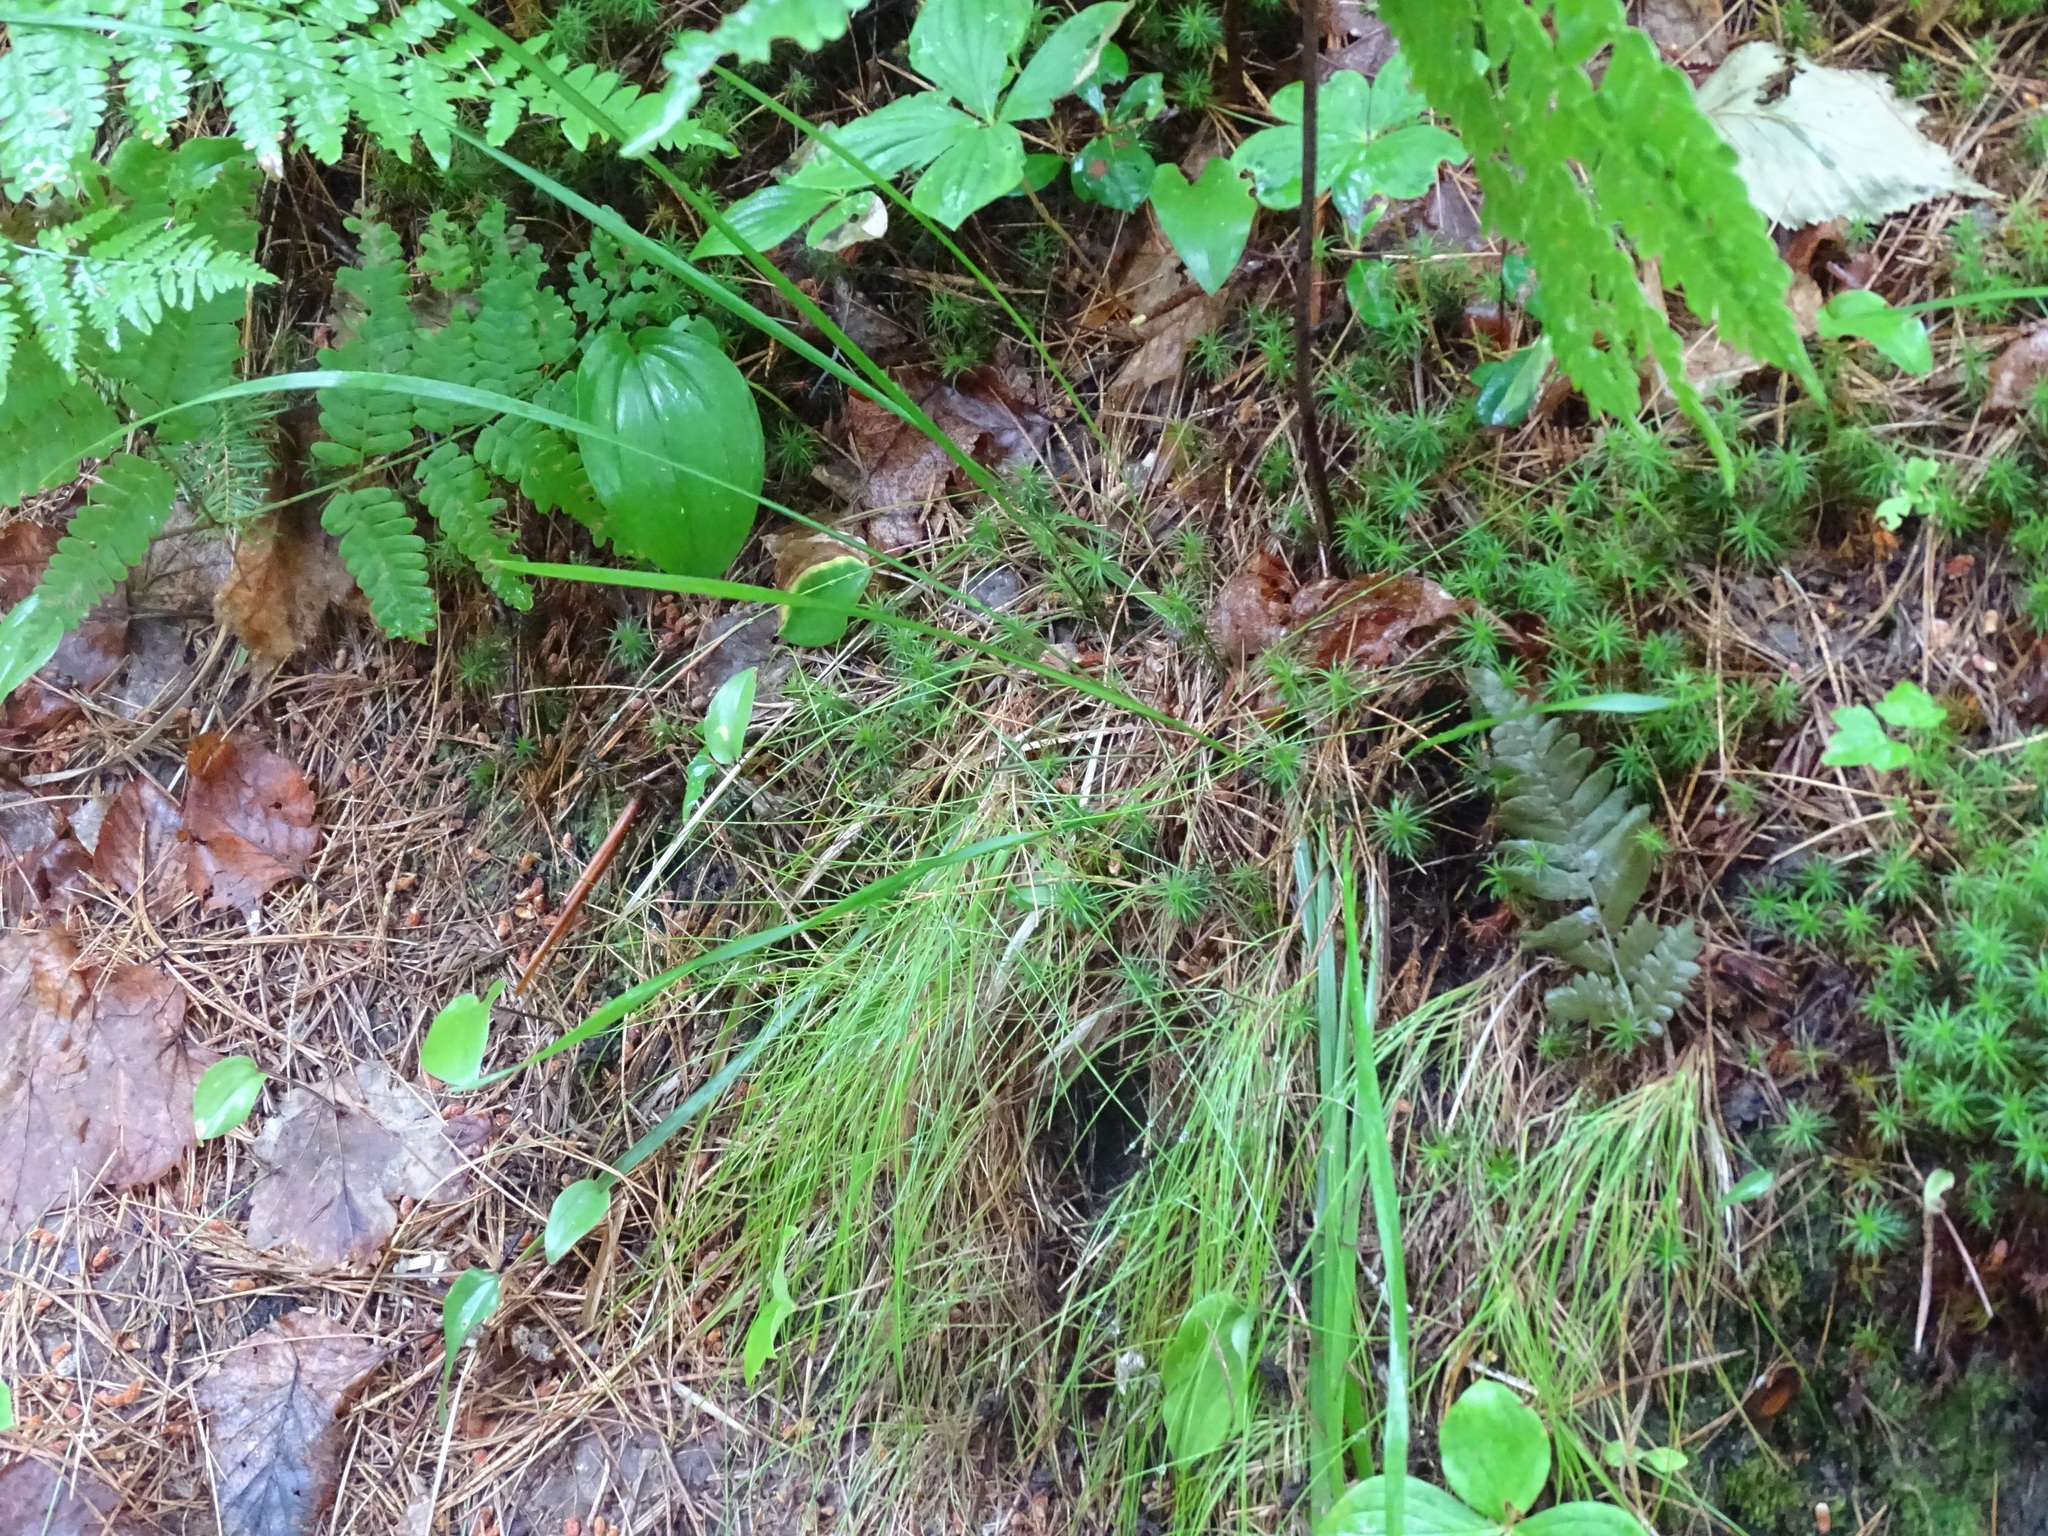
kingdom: Plantae
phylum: Tracheophyta
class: Liliopsida
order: Poales
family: Poaceae
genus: Oryzopsis
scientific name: Oryzopsis asperifolia
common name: Rough-leaved mountain rice
